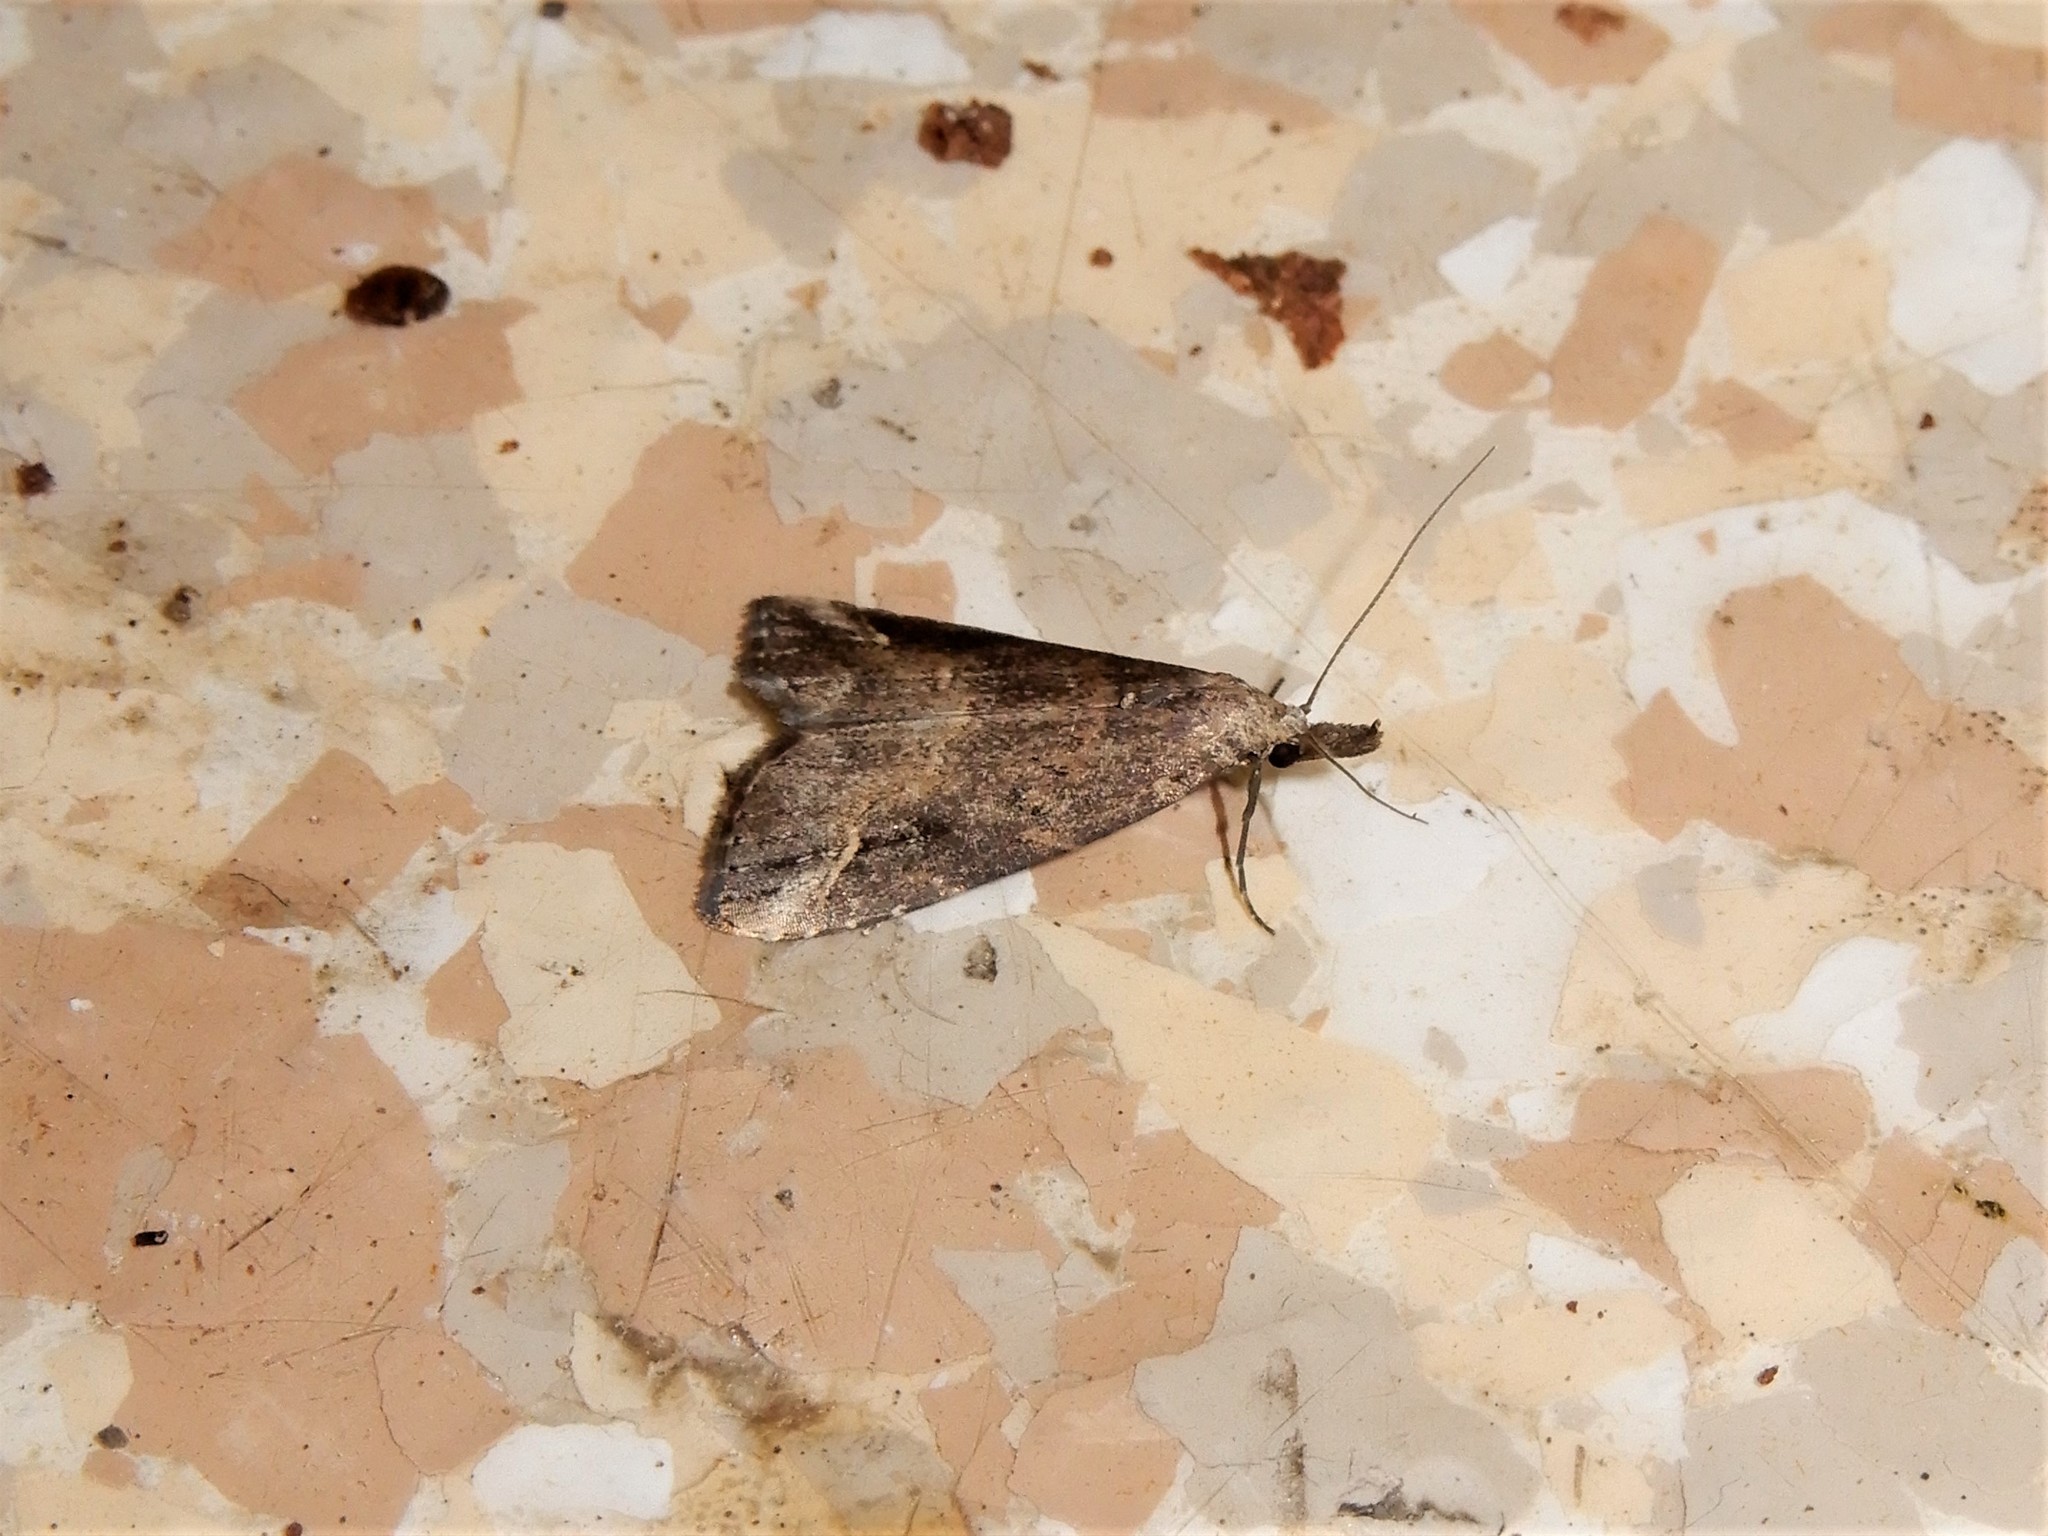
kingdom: Animalia
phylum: Arthropoda
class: Insecta
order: Lepidoptera
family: Erebidae
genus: Schrankia
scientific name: Schrankia costaestrigalis
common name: Pinion-streaked snout
